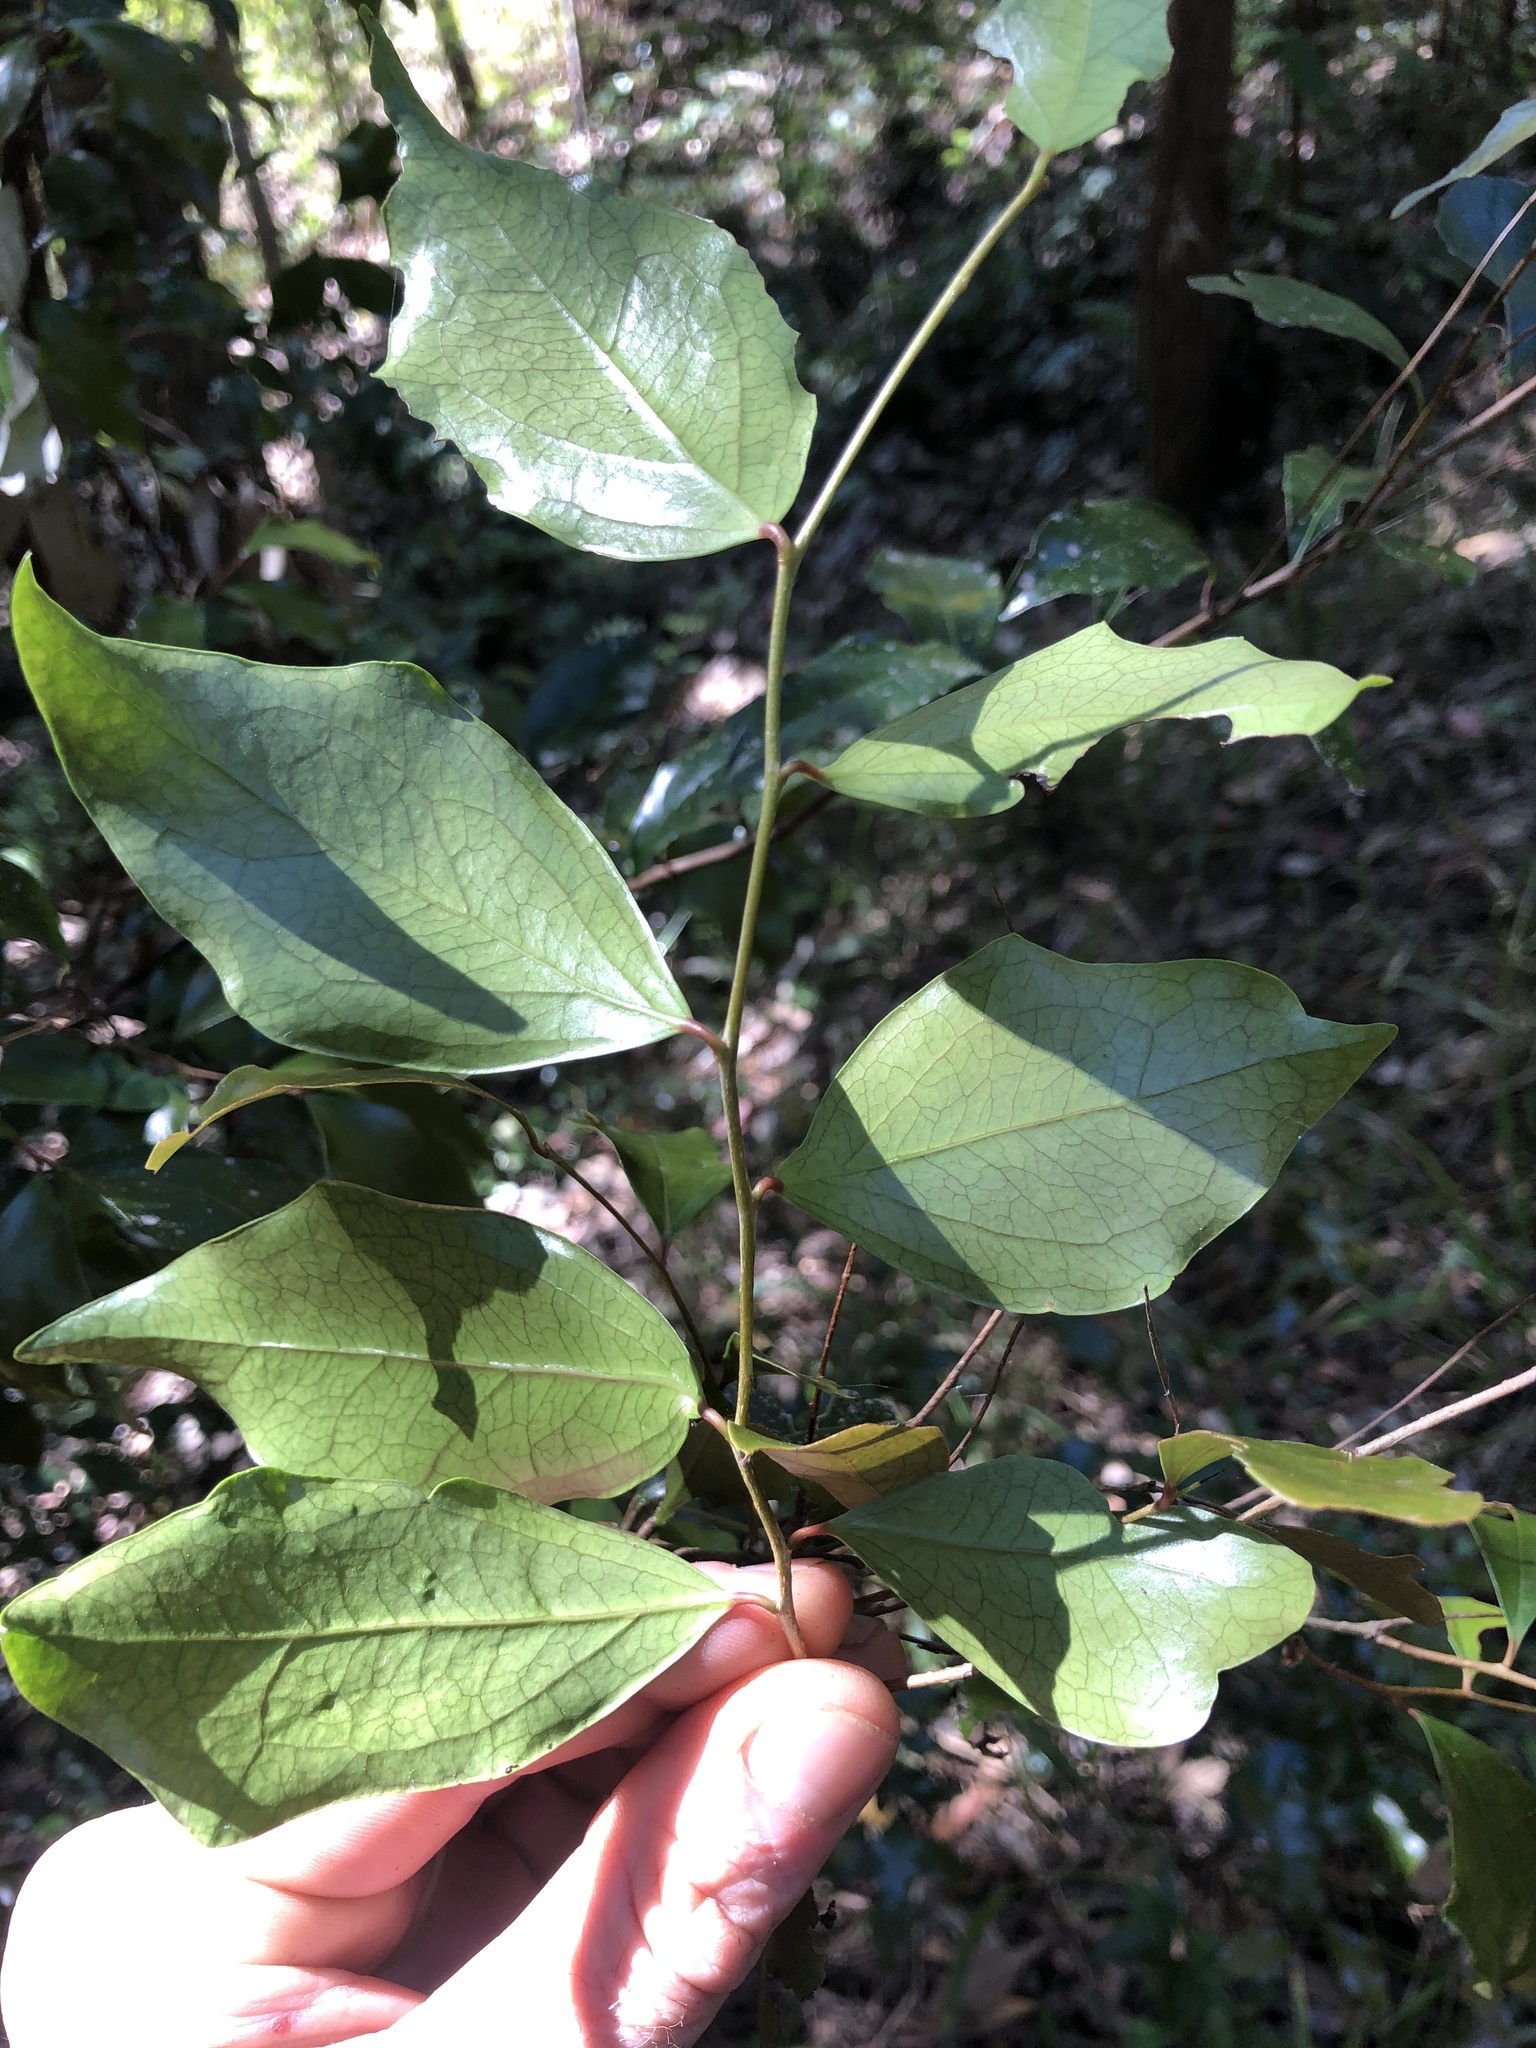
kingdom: Plantae
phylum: Tracheophyta
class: Magnoliopsida
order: Malpighiales
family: Salicaceae
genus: Scolopia
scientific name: Scolopia braunii
